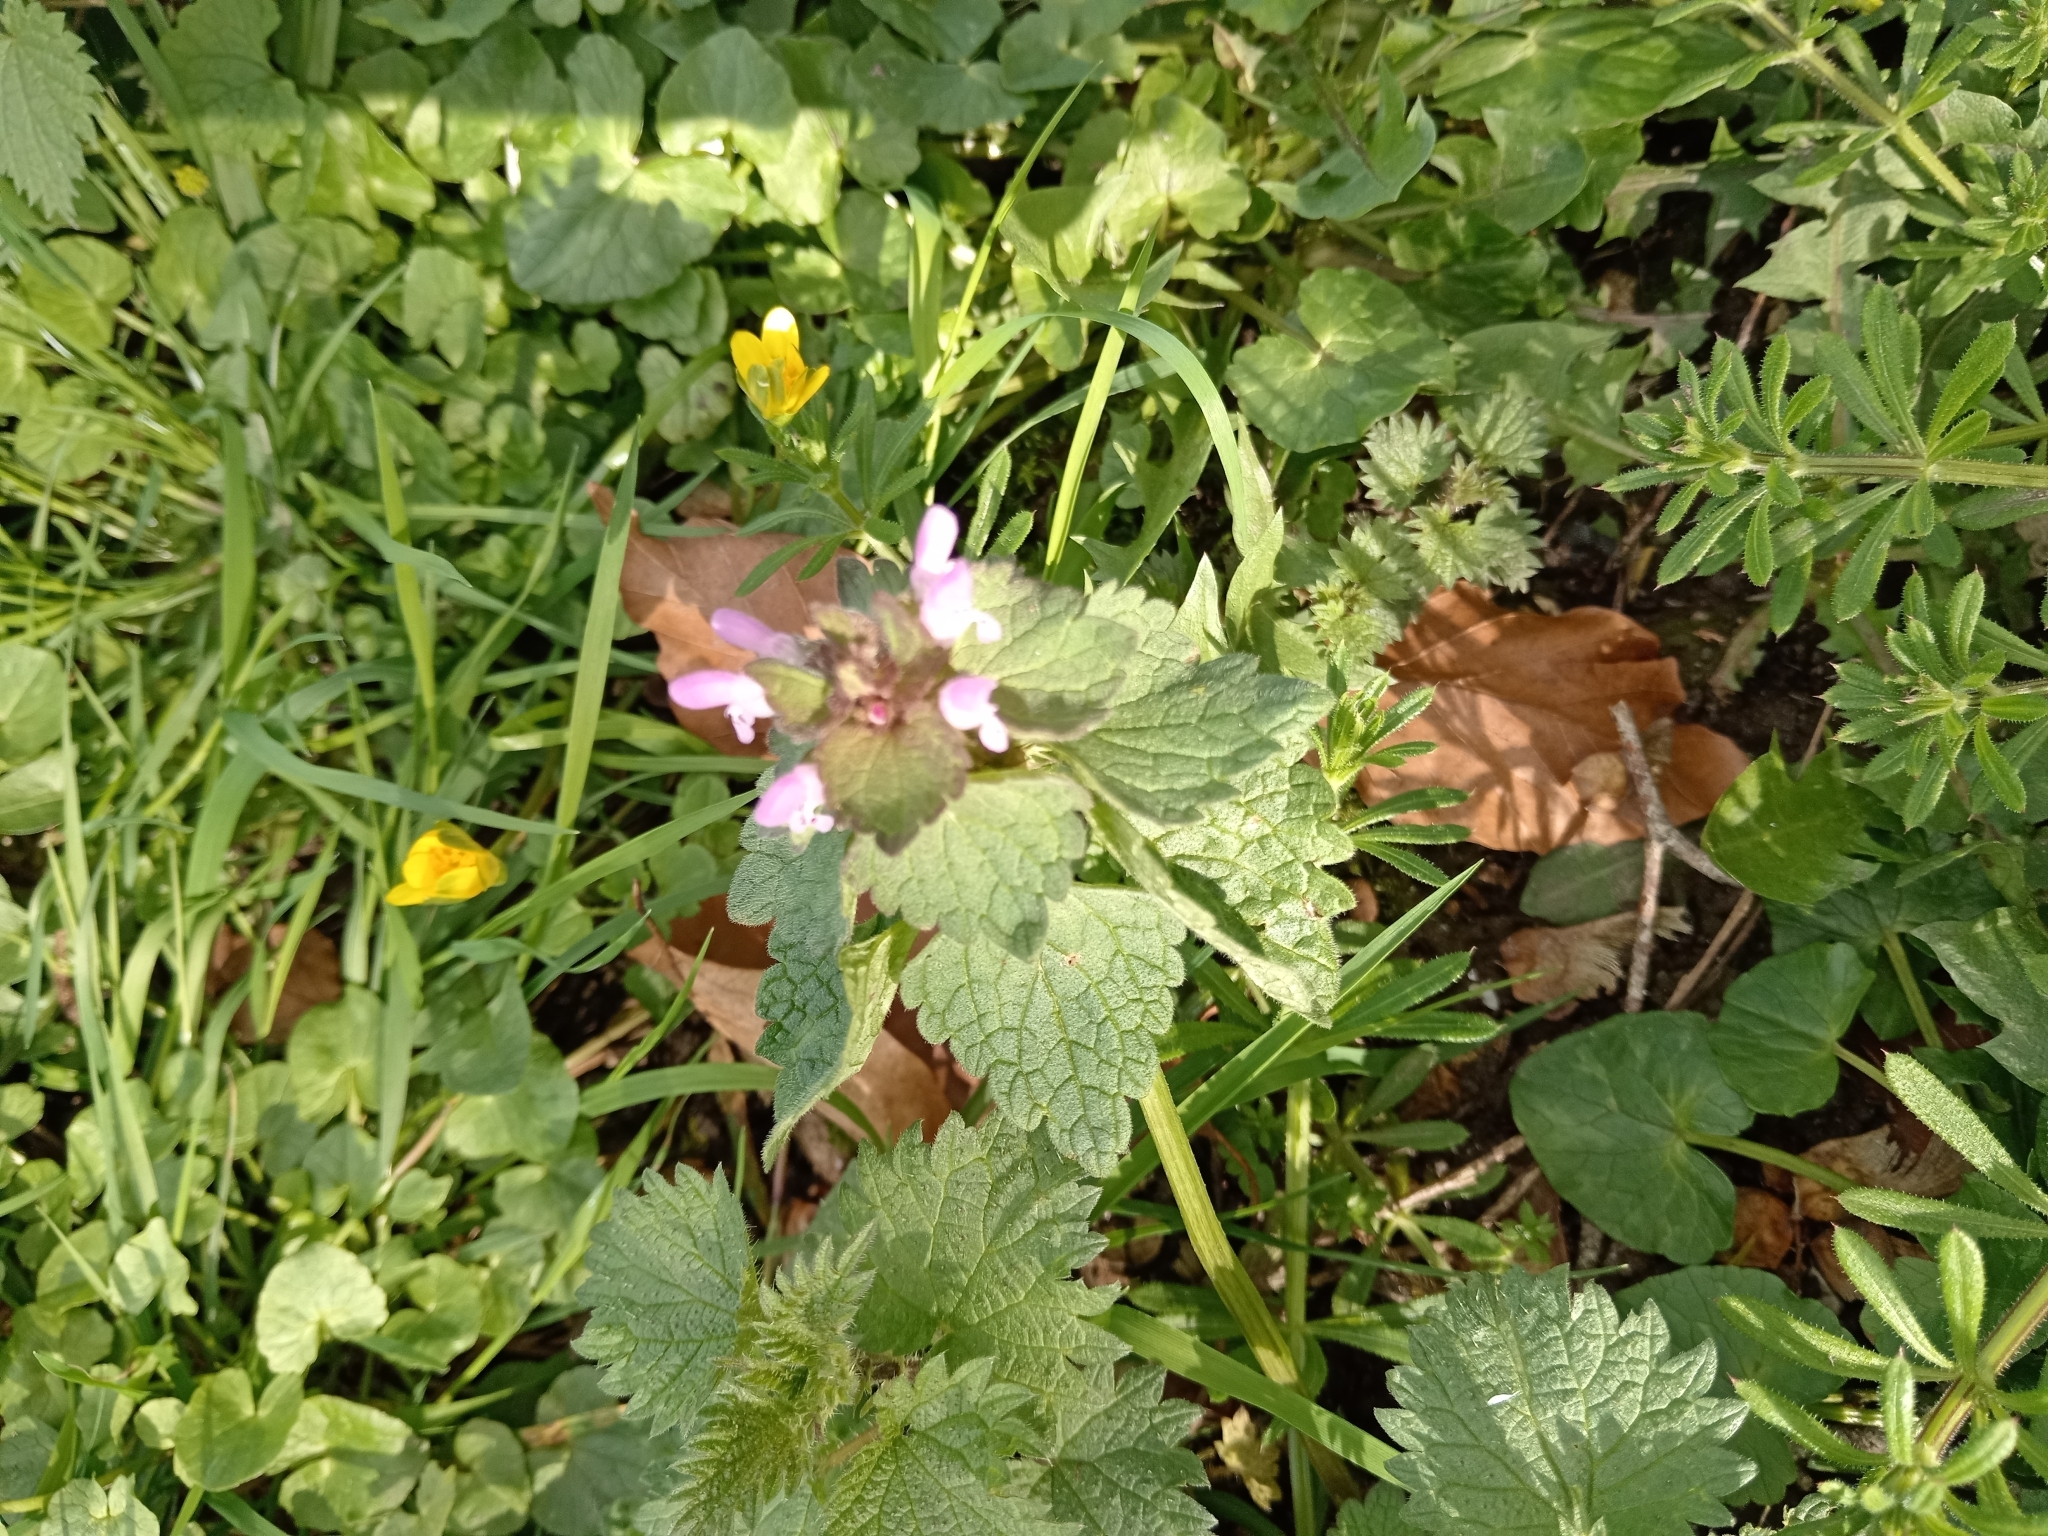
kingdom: Plantae
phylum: Tracheophyta
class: Magnoliopsida
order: Lamiales
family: Lamiaceae
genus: Lamium
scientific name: Lamium purpureum
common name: Red dead-nettle
